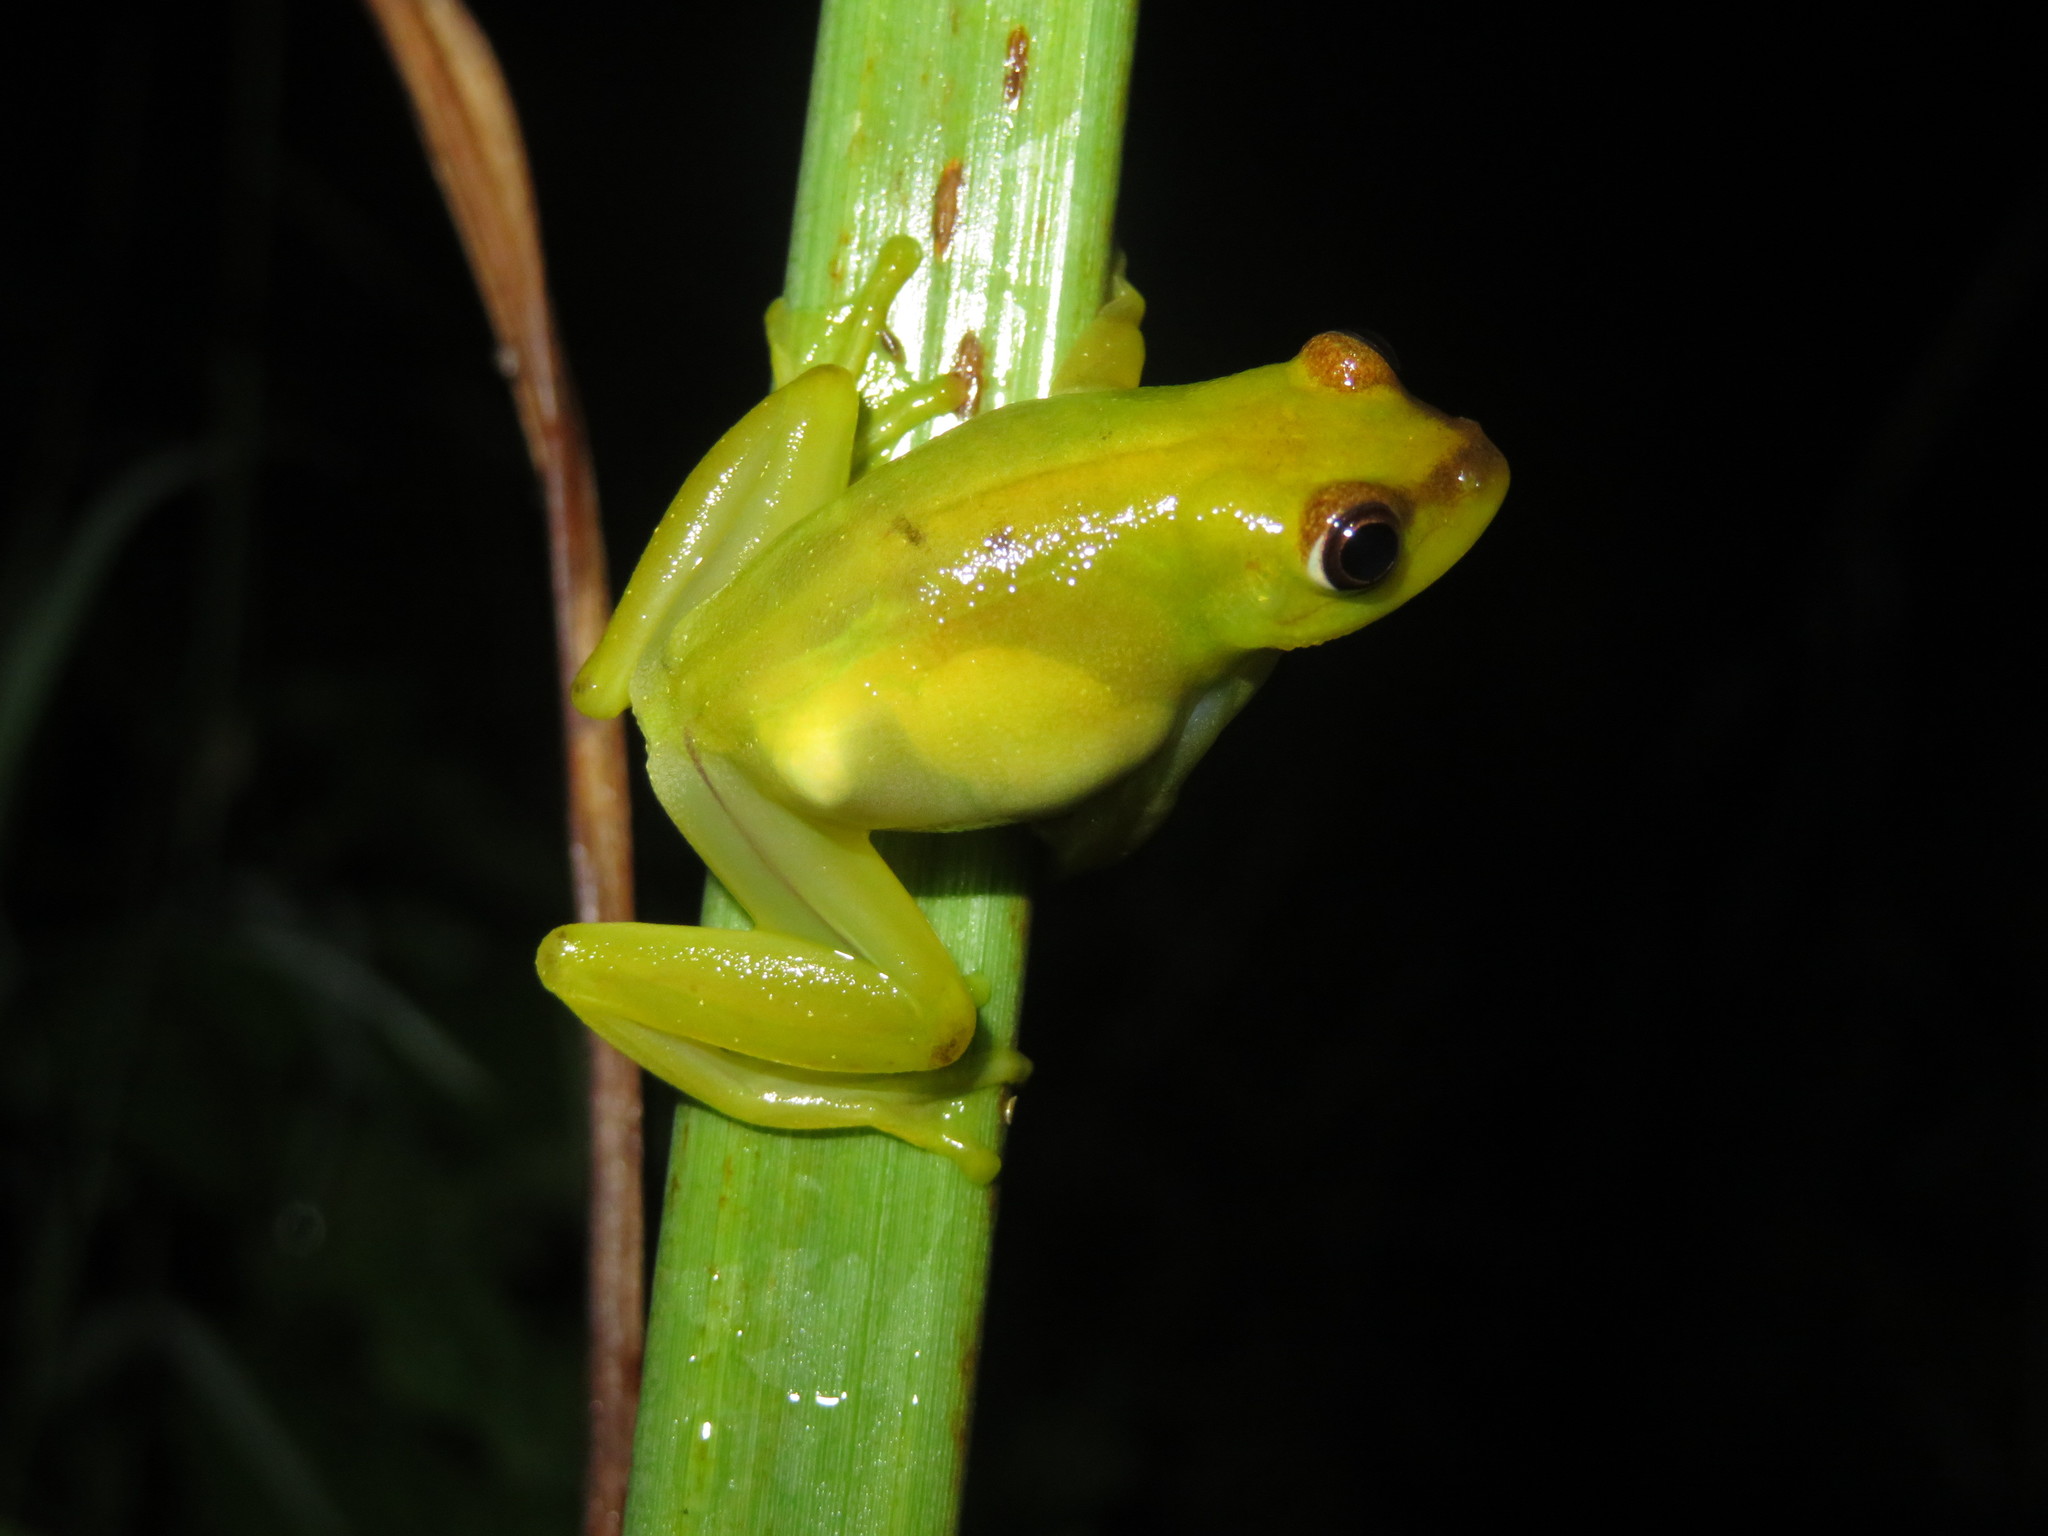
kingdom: Animalia
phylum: Chordata
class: Amphibia
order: Anura
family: Hyperoliidae
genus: Hyperolius
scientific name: Hyperolius argus
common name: Argus reed frog
